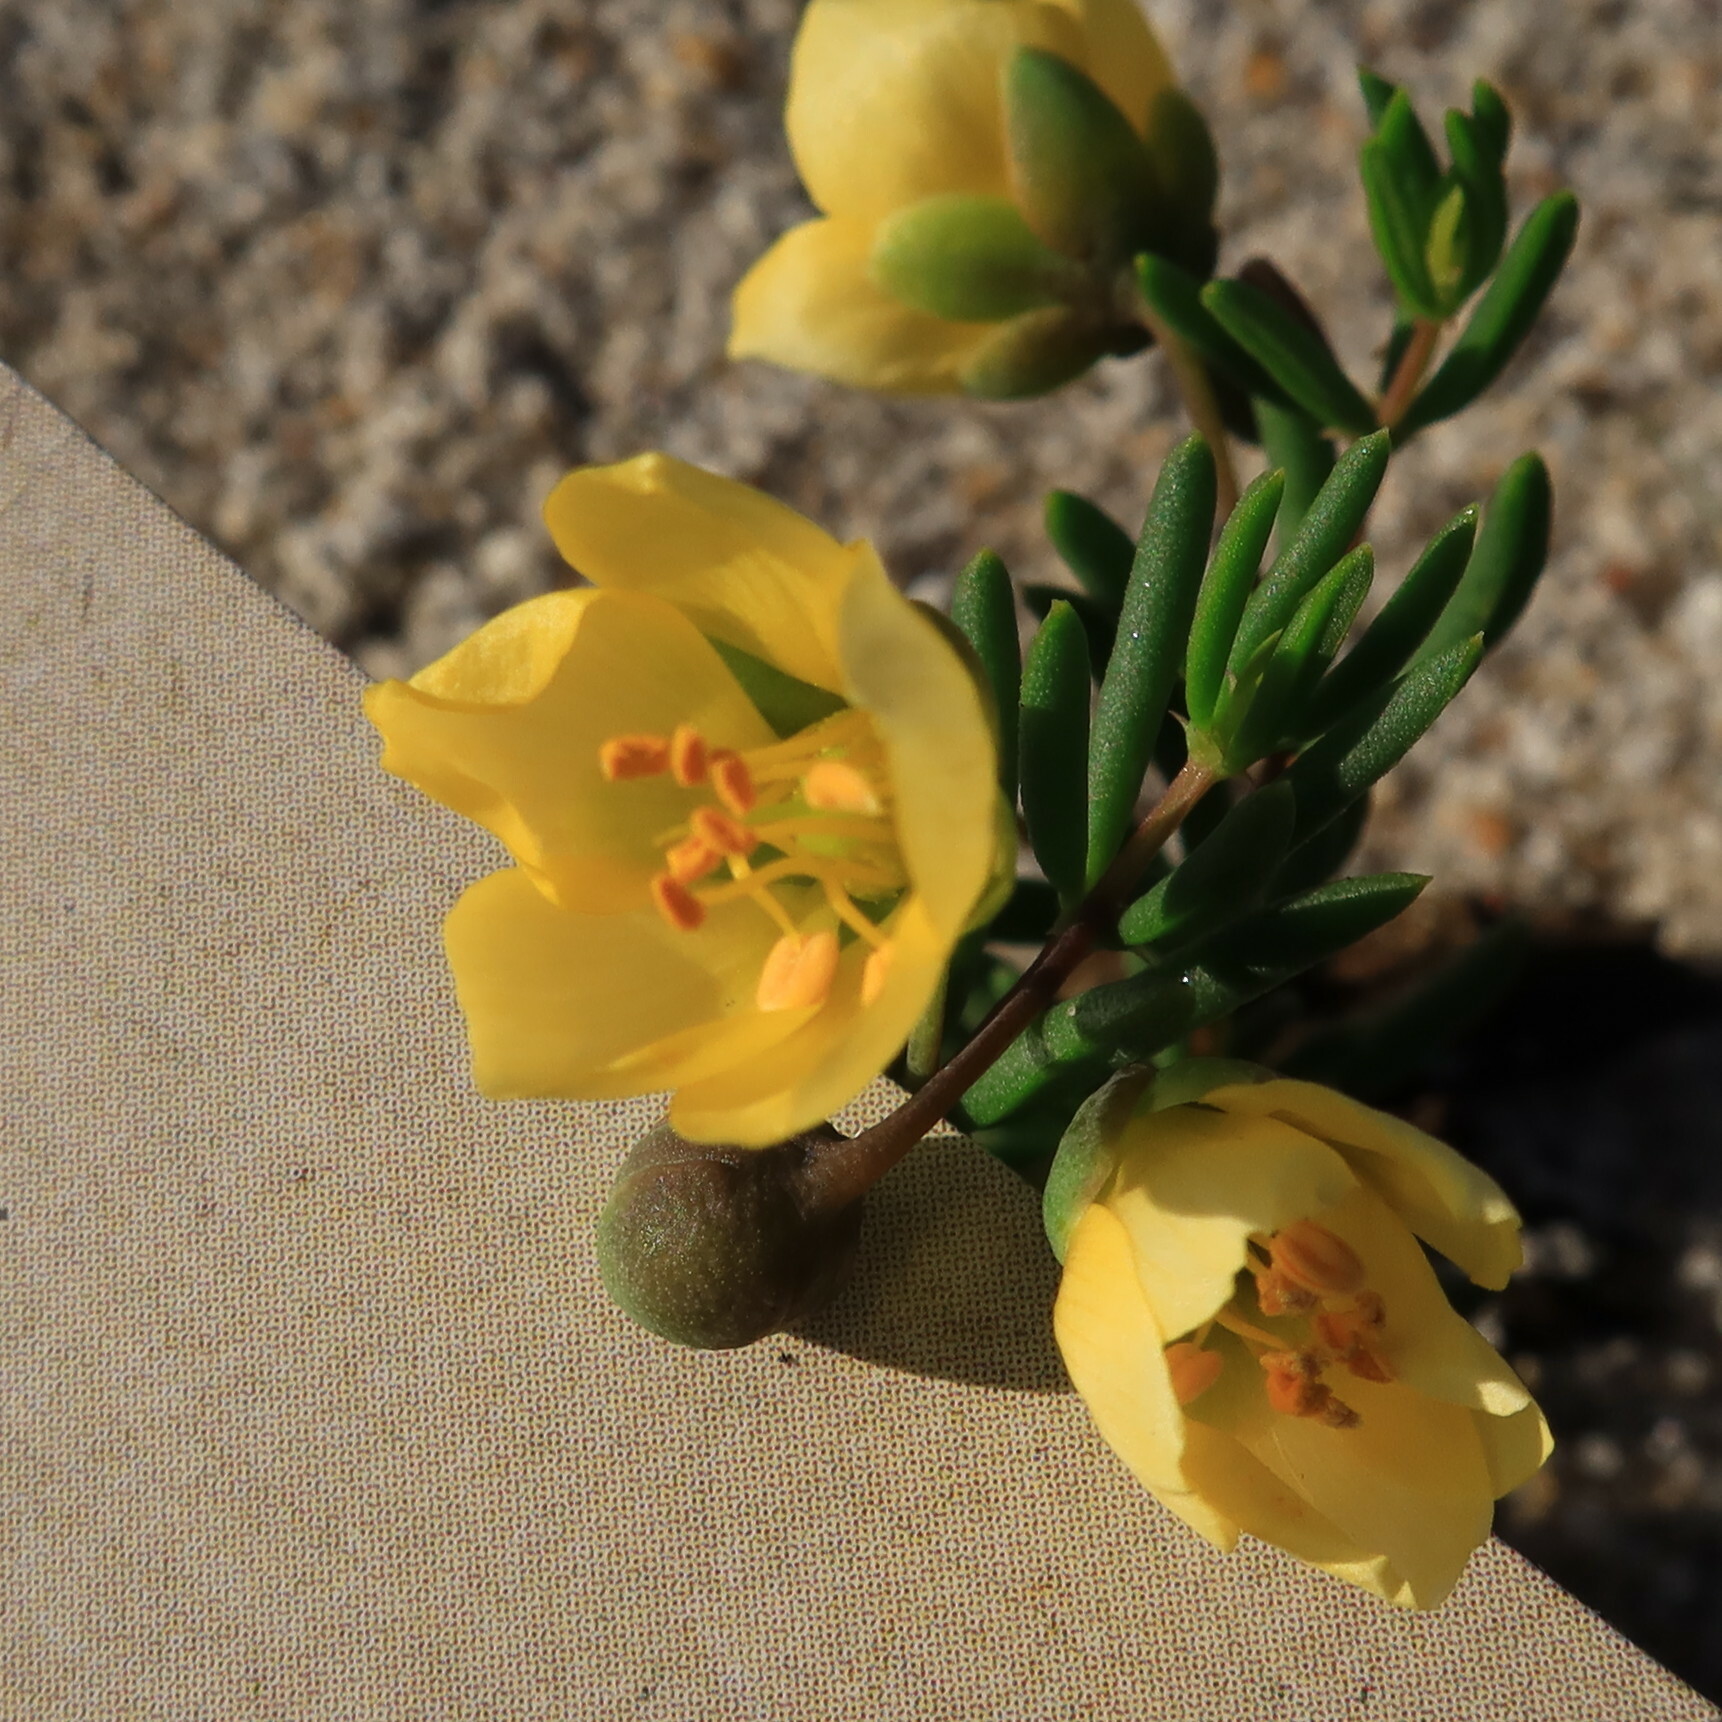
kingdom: Plantae
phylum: Tracheophyta
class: Magnoliopsida
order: Zygophyllales
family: Zygophyllaceae
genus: Roepera
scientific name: Roepera spinosa
